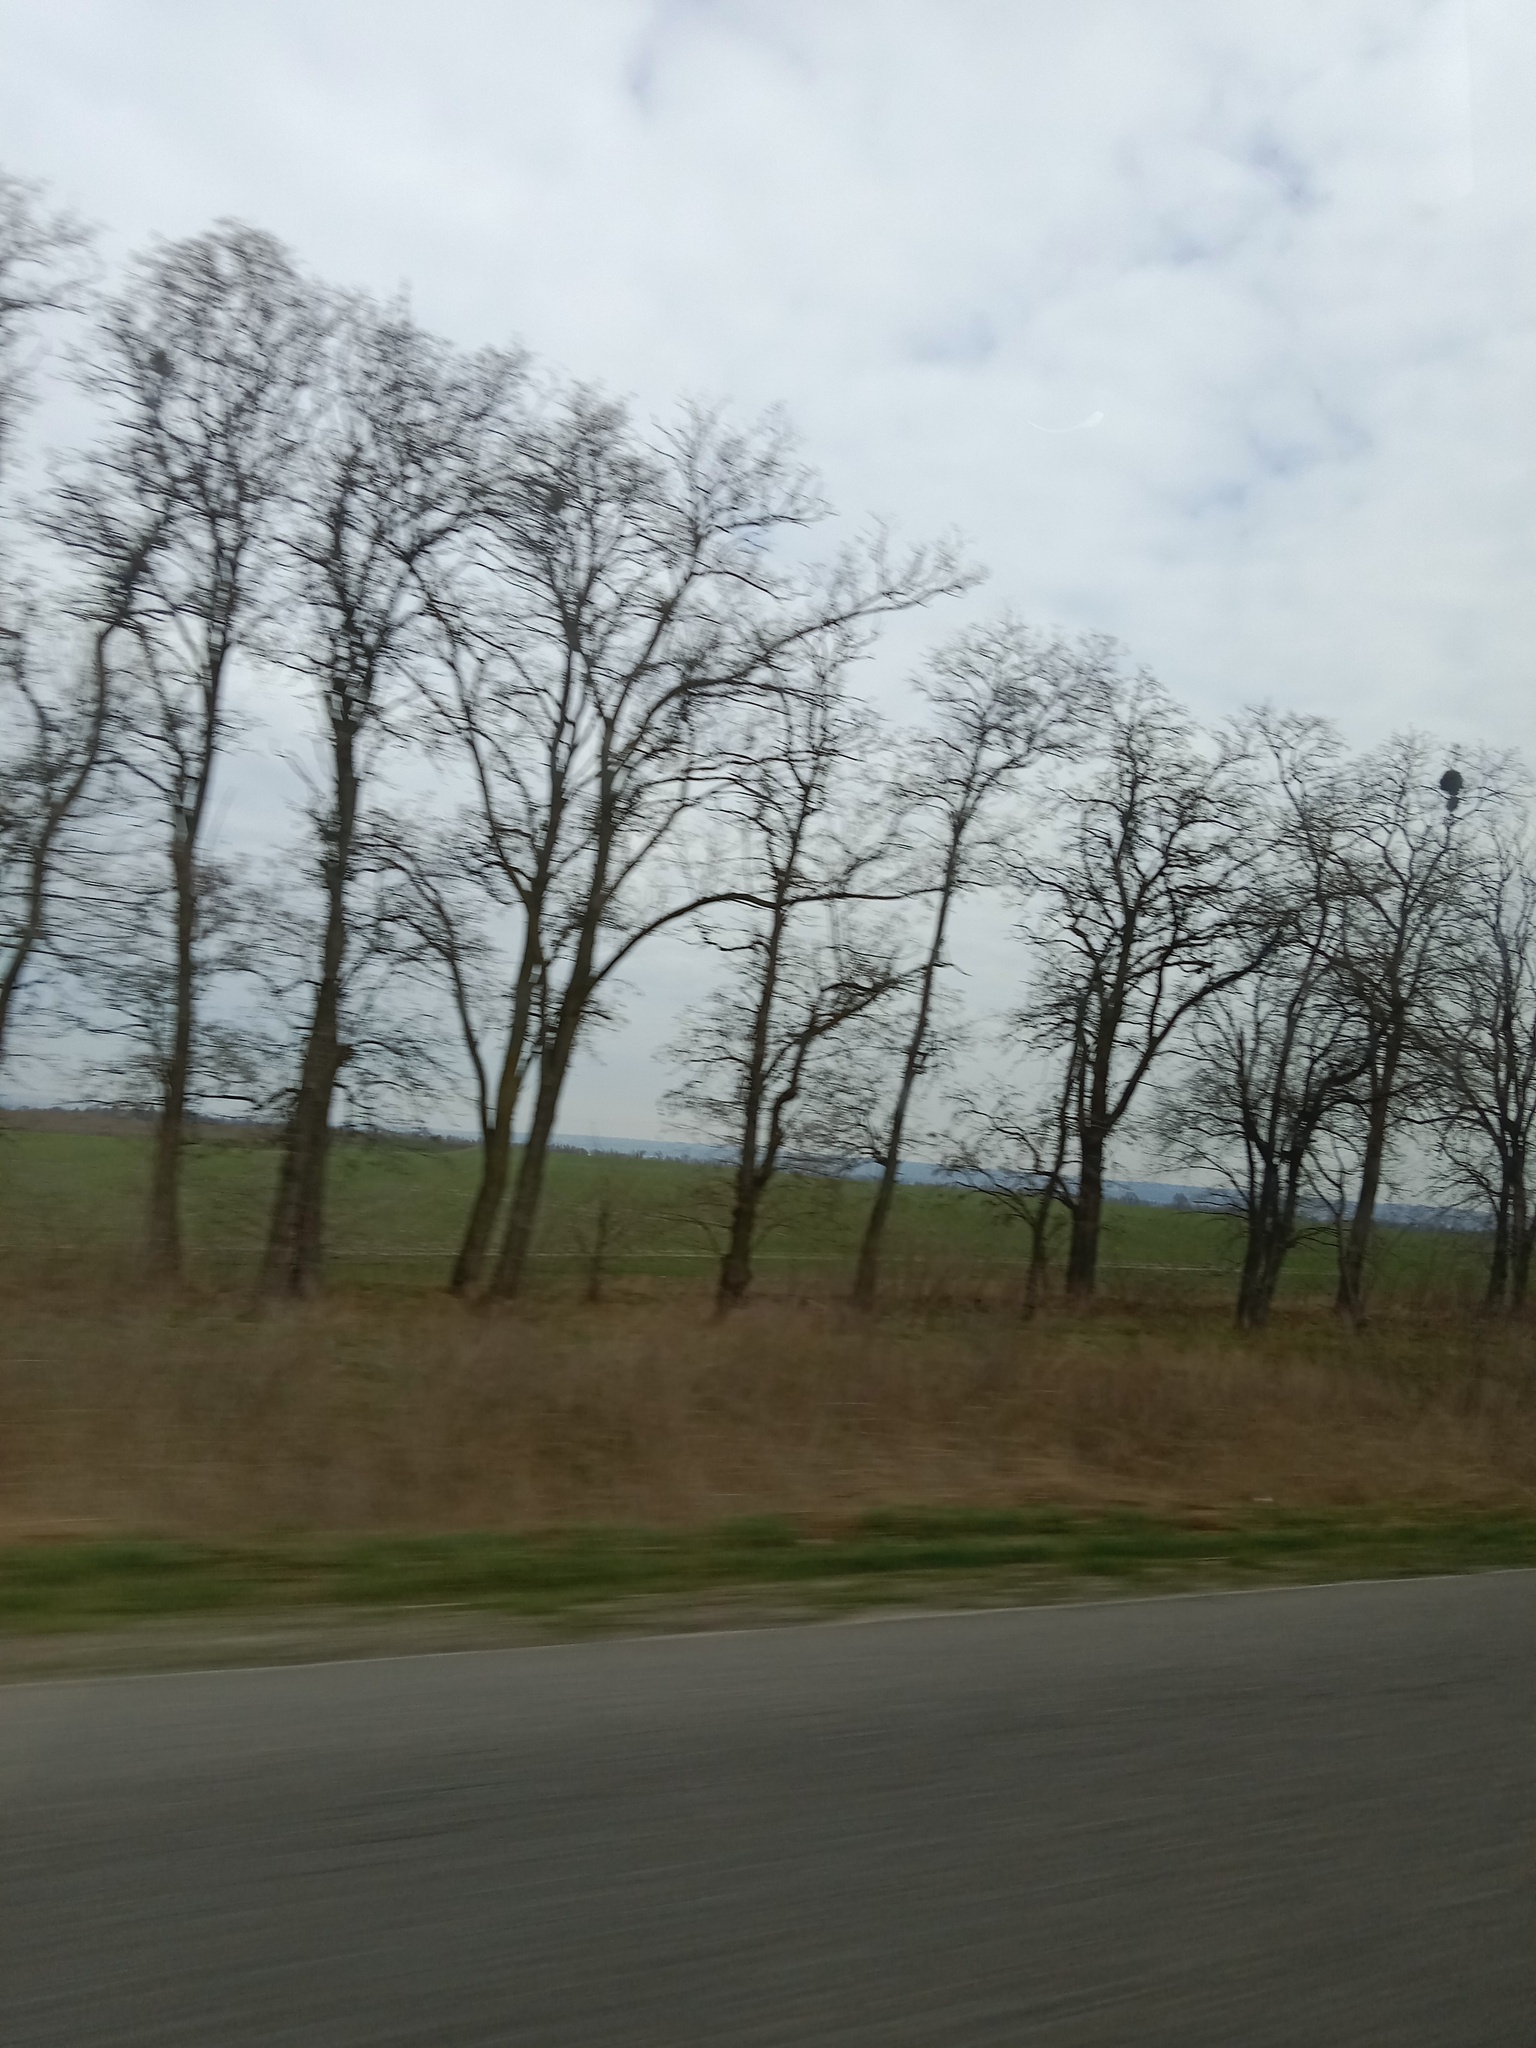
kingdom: Plantae
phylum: Tracheophyta
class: Magnoliopsida
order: Santalales
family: Viscaceae
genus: Viscum
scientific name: Viscum album
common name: Mistletoe
